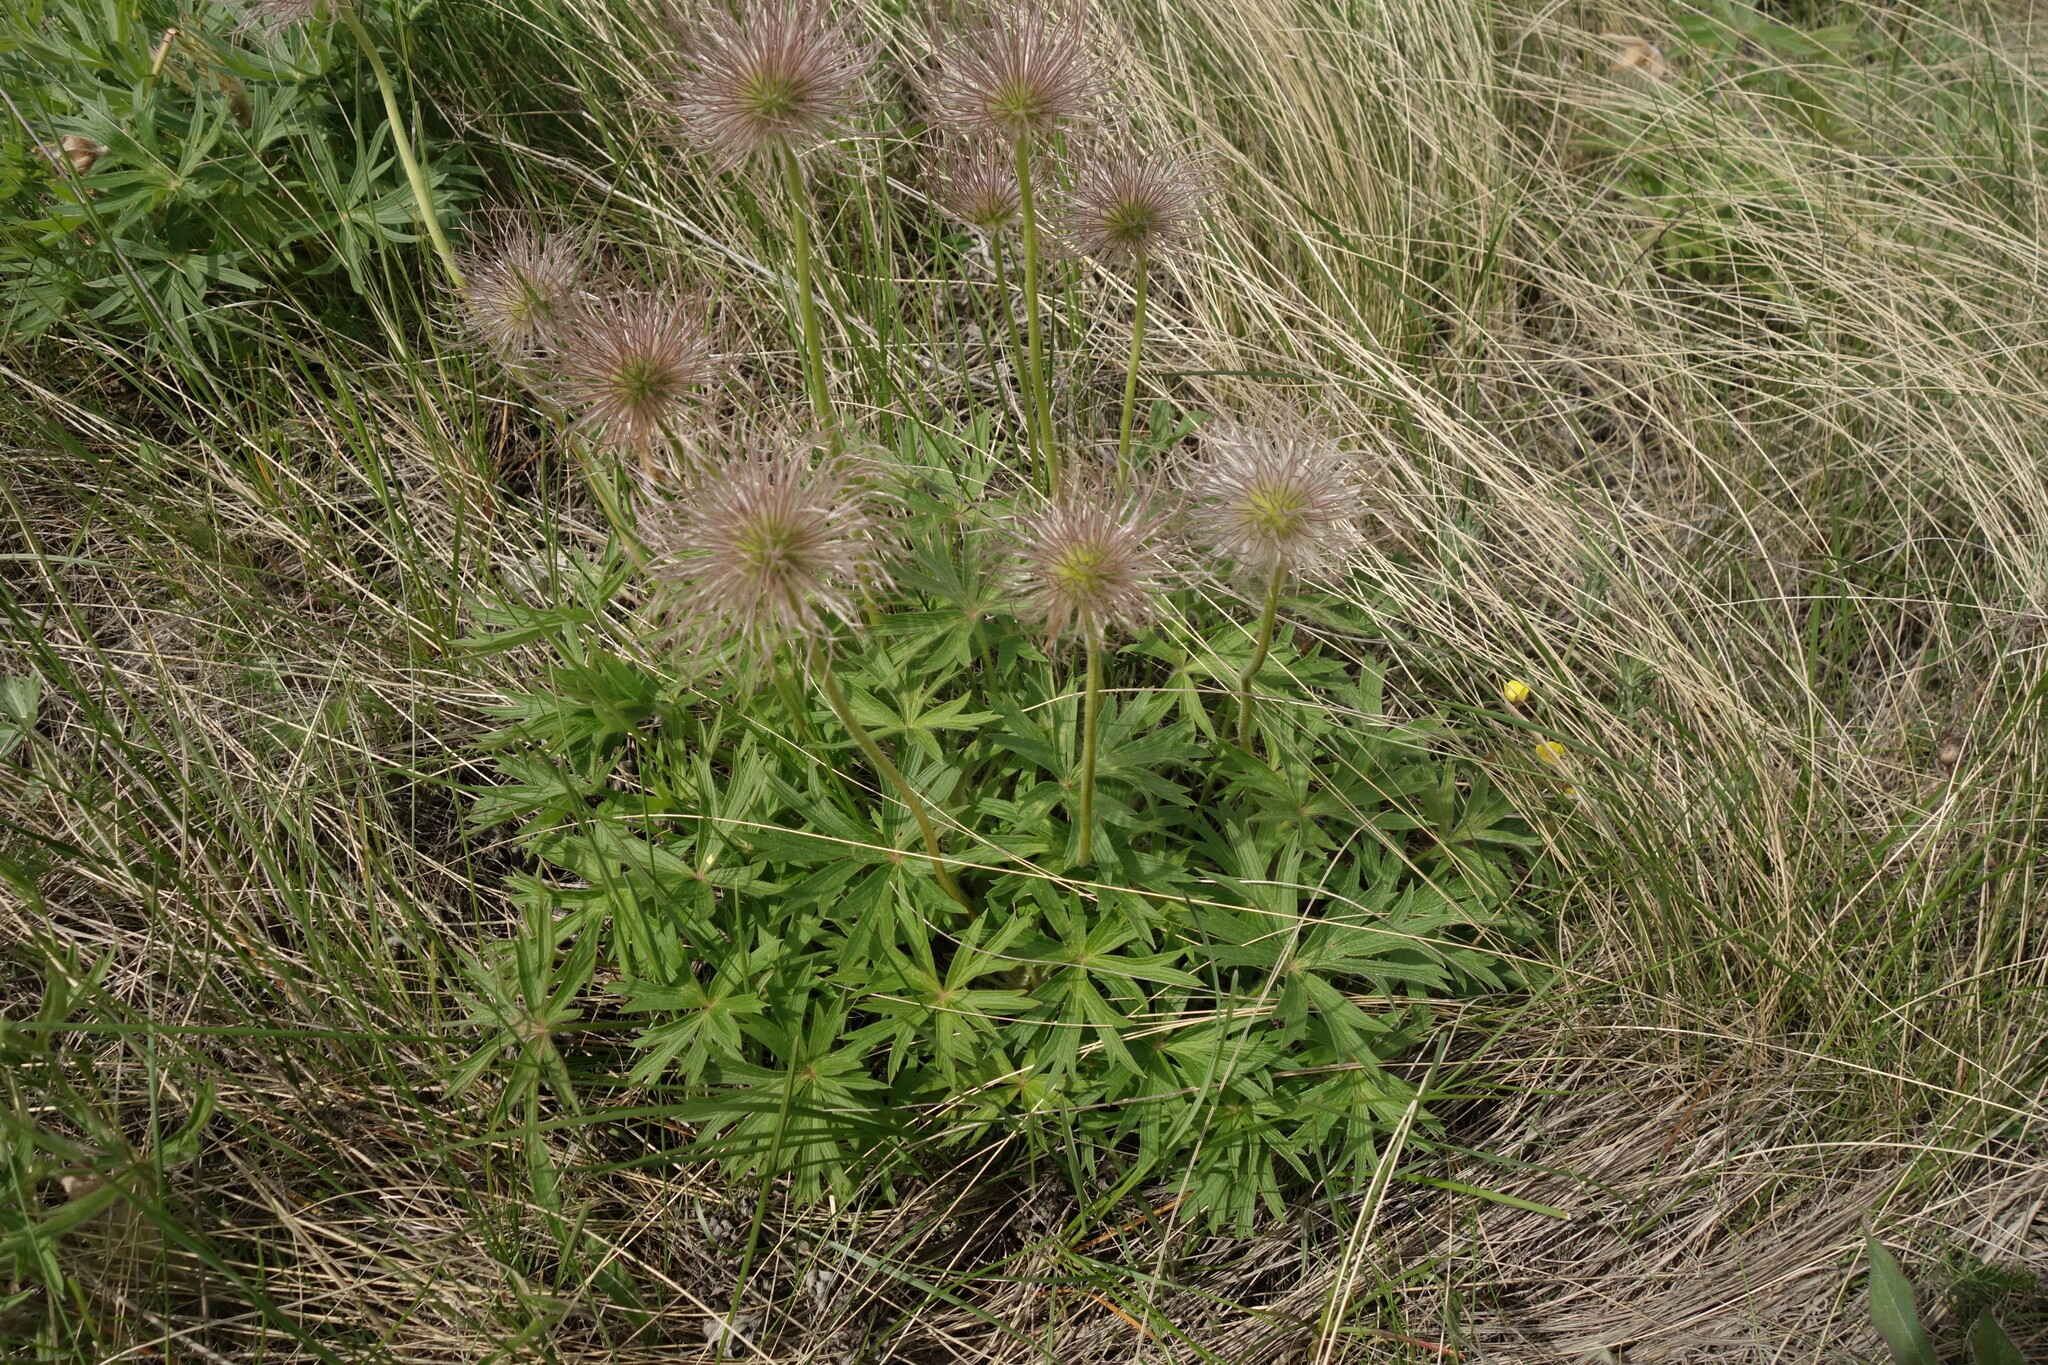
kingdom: Plantae
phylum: Tracheophyta
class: Magnoliopsida
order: Ranunculales
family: Ranunculaceae
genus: Pulsatilla
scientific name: Pulsatilla patens
